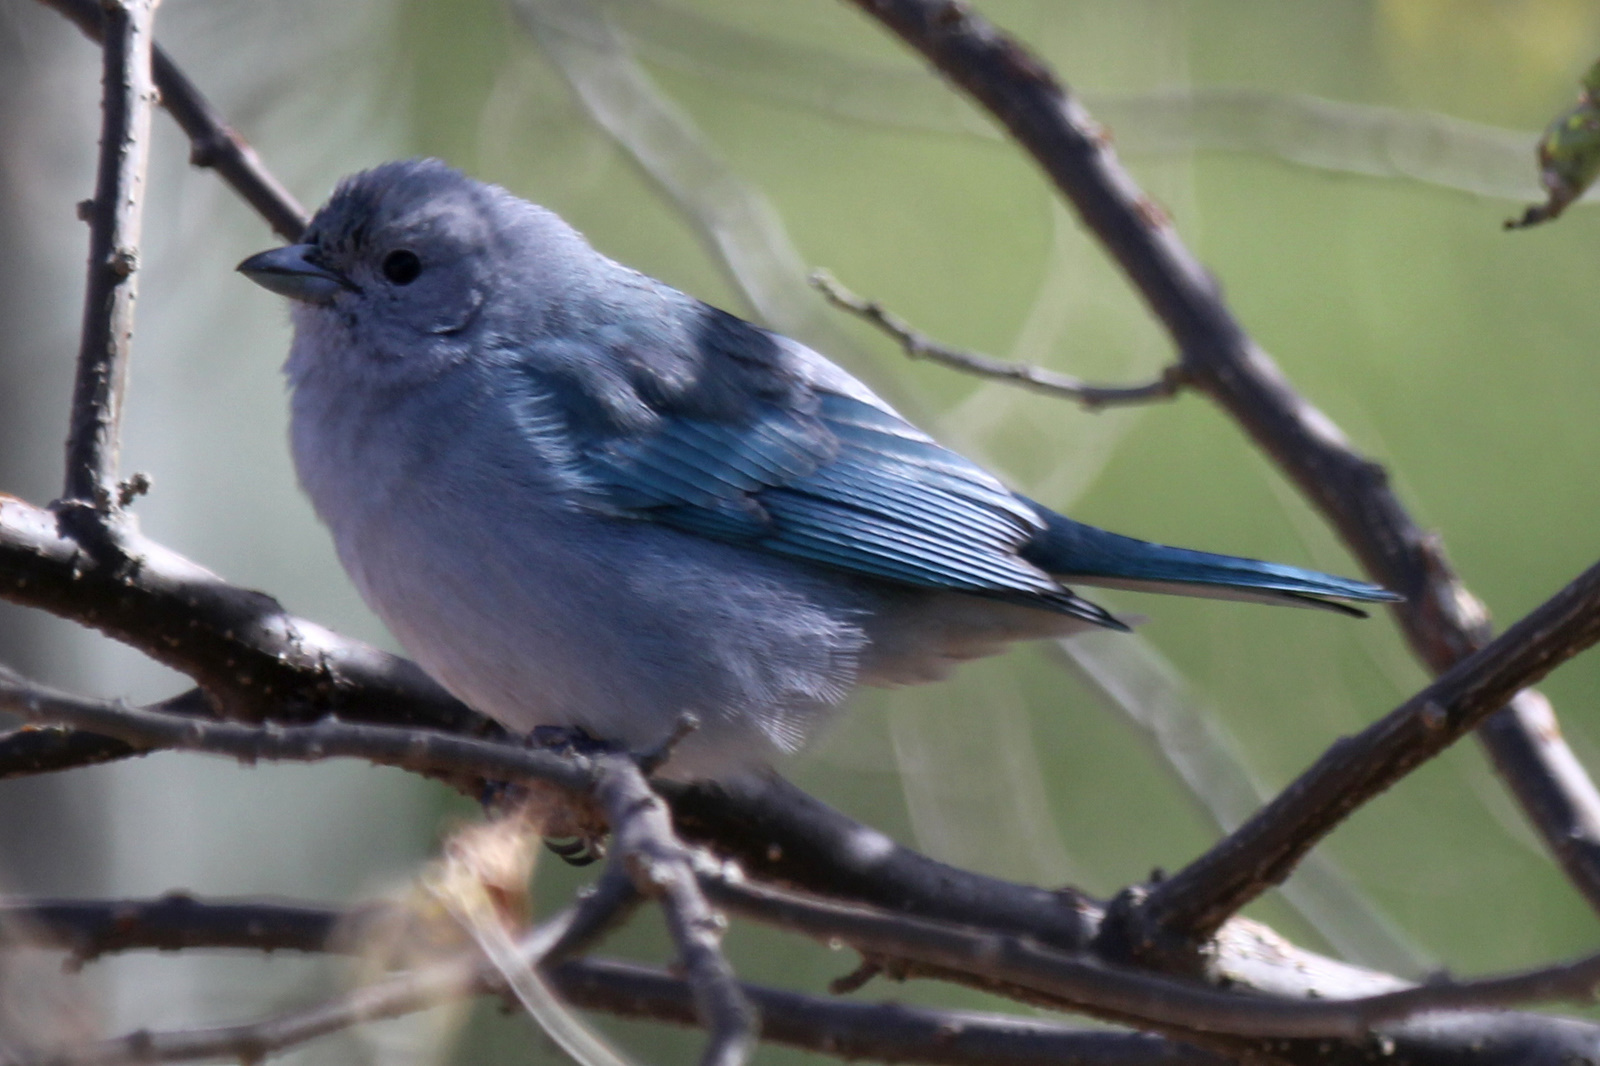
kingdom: Animalia
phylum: Chordata
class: Aves
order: Passeriformes
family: Thraupidae
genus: Thraupis
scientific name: Thraupis sayaca
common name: Sayaca tanager
